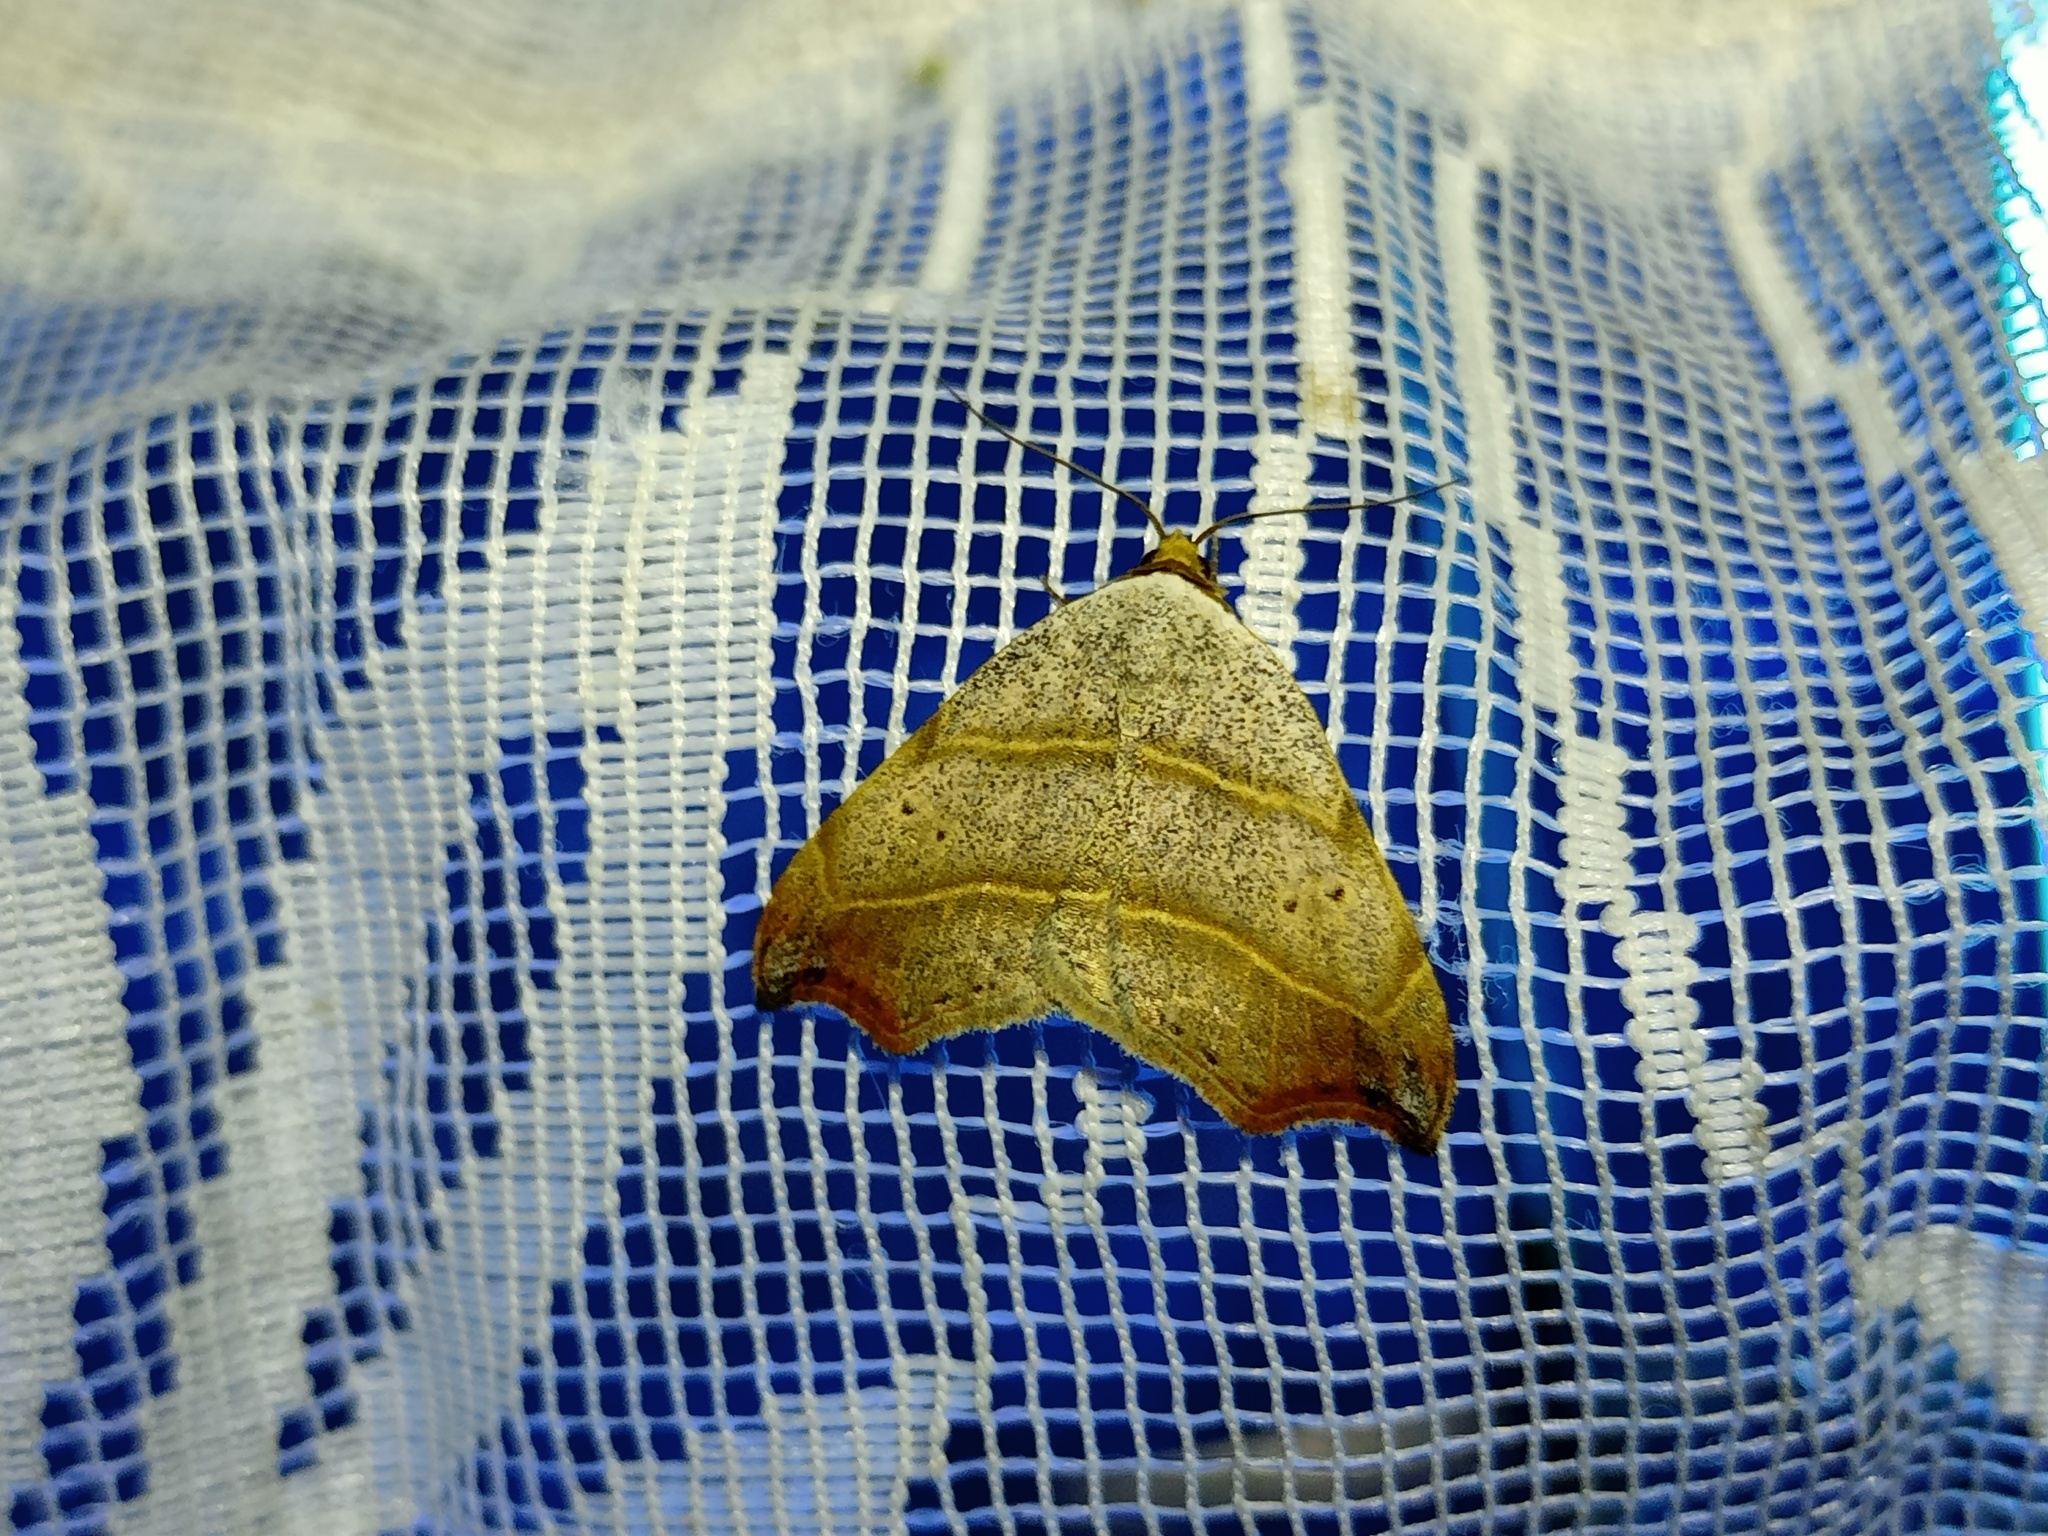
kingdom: Animalia
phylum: Arthropoda
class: Insecta
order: Lepidoptera
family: Erebidae
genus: Laspeyria
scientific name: Laspeyria flexula
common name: Beautiful hook-tip
